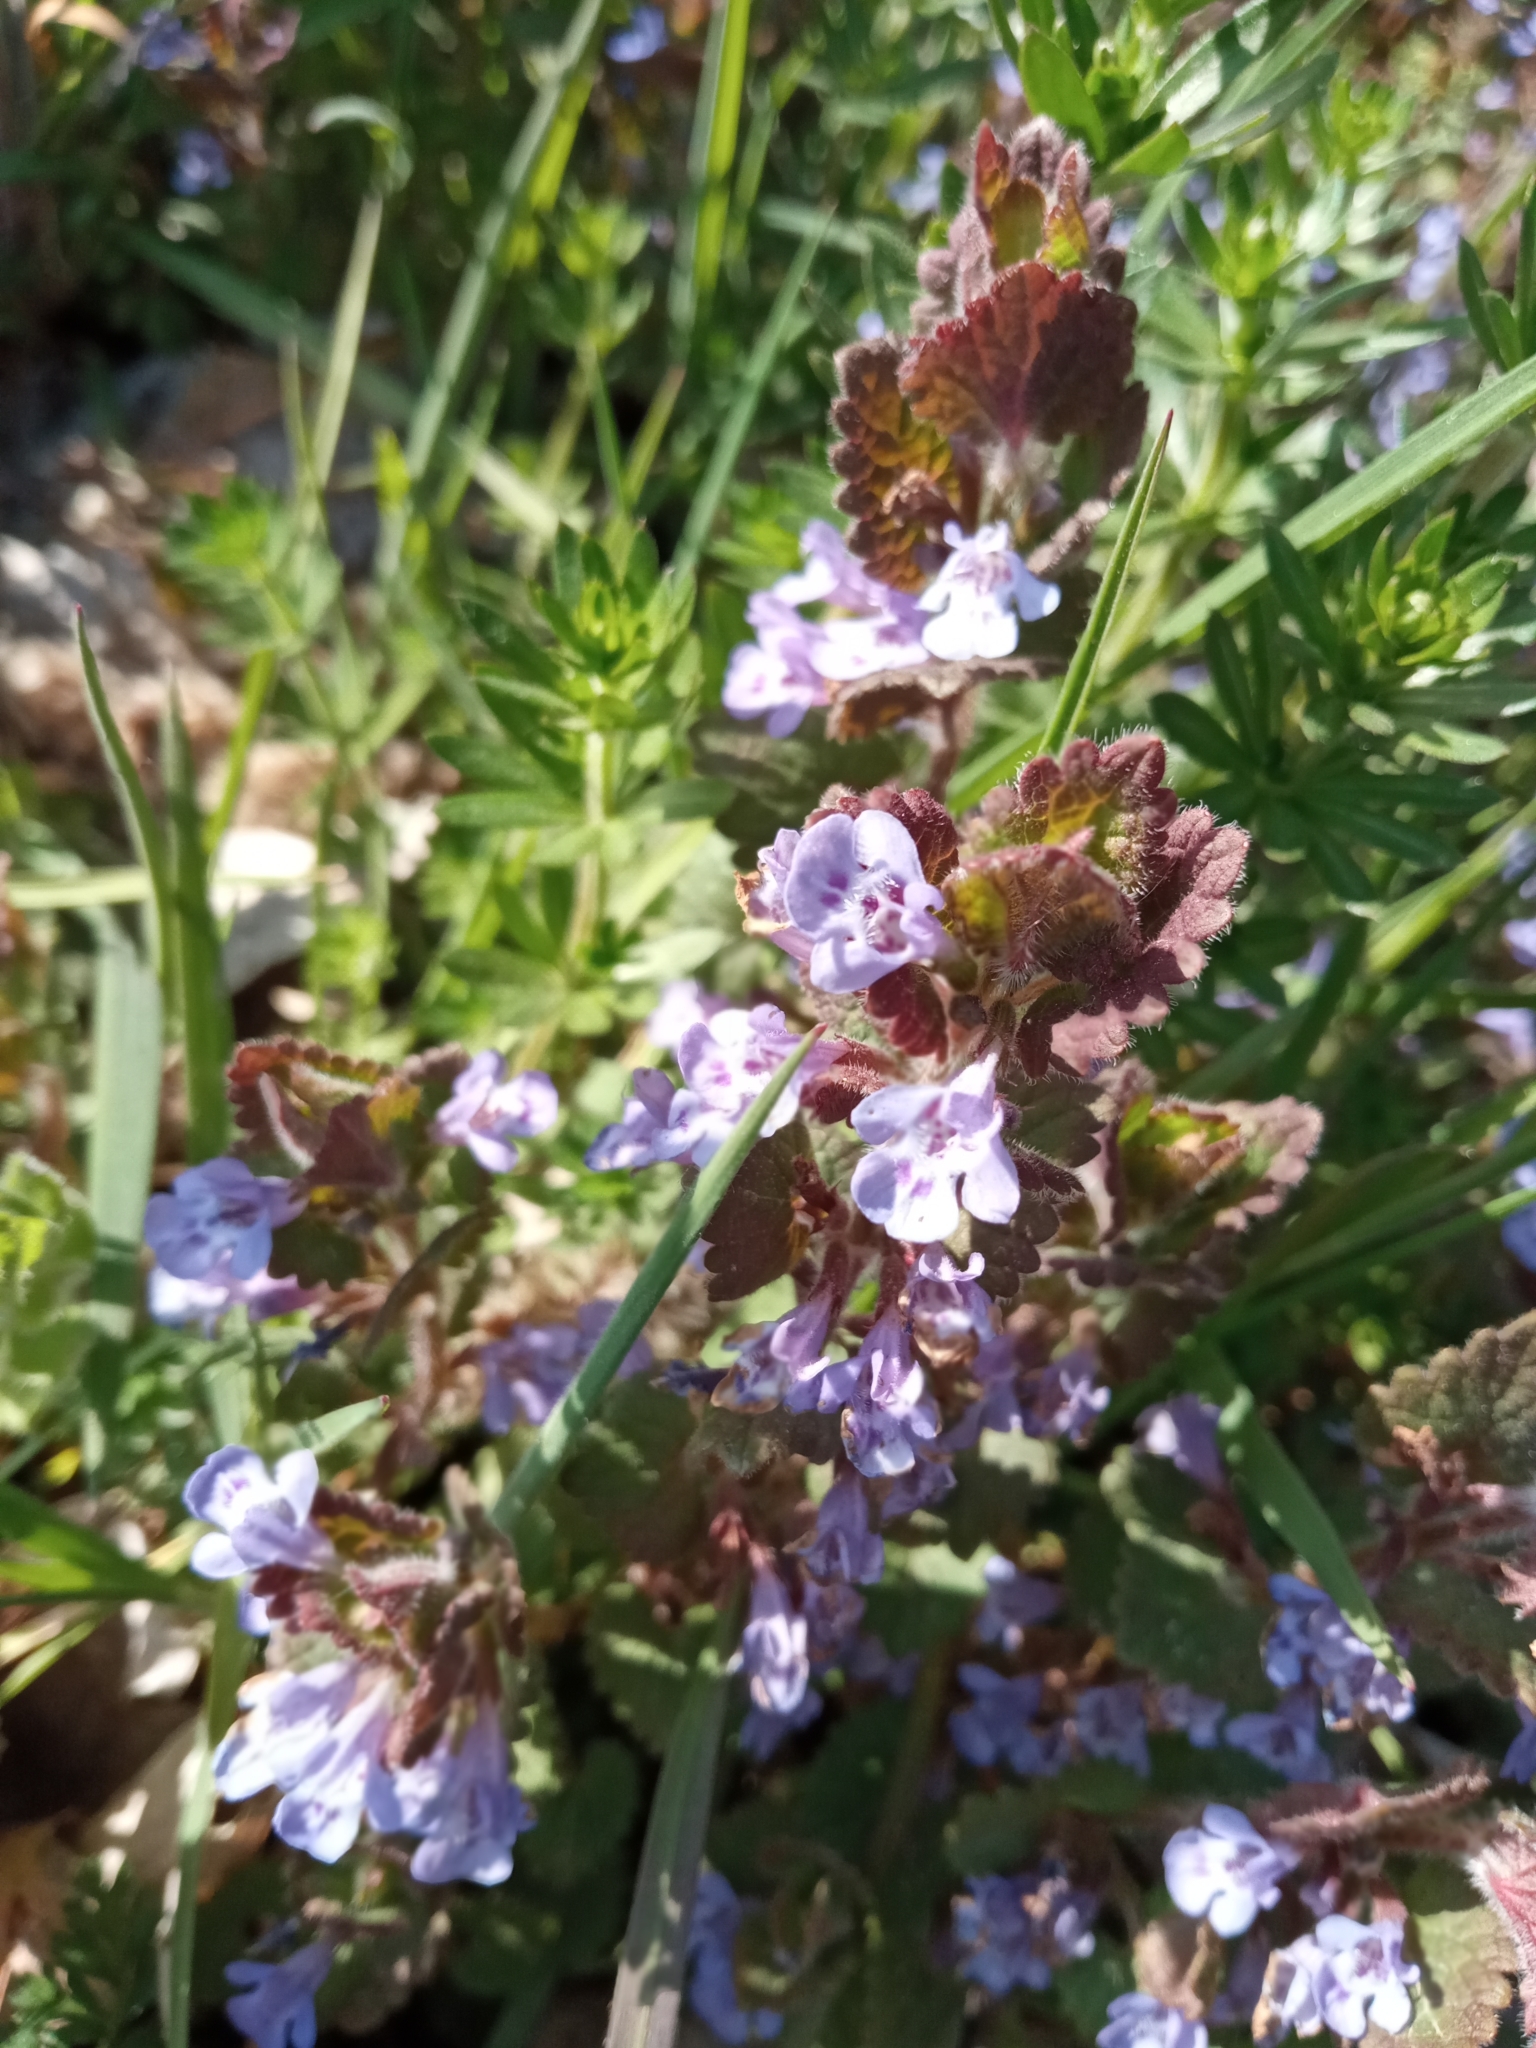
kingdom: Plantae
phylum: Tracheophyta
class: Magnoliopsida
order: Lamiales
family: Lamiaceae
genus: Glechoma
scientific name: Glechoma hederacea
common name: Ground ivy
